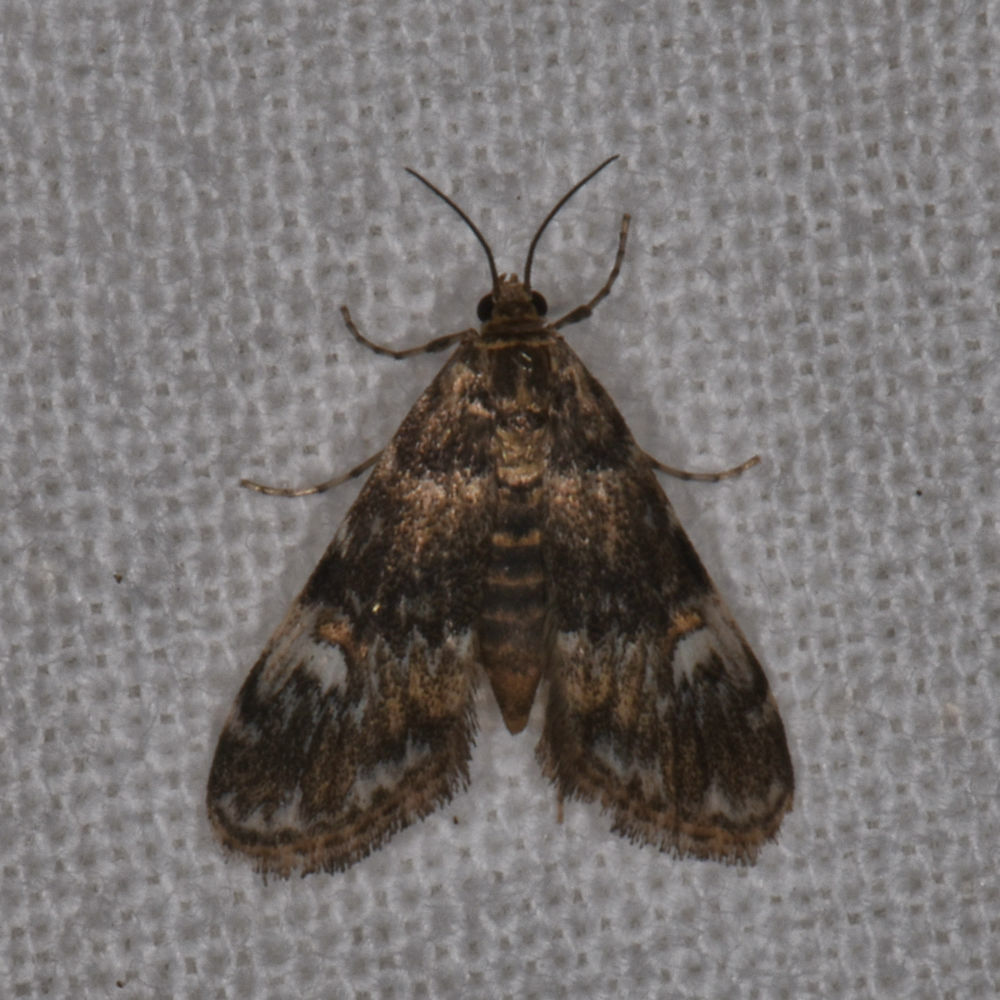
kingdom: Animalia
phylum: Arthropoda
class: Insecta
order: Lepidoptera
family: Crambidae
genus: Elophila
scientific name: Elophila obliteralis
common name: Waterlily leafcutter moth
